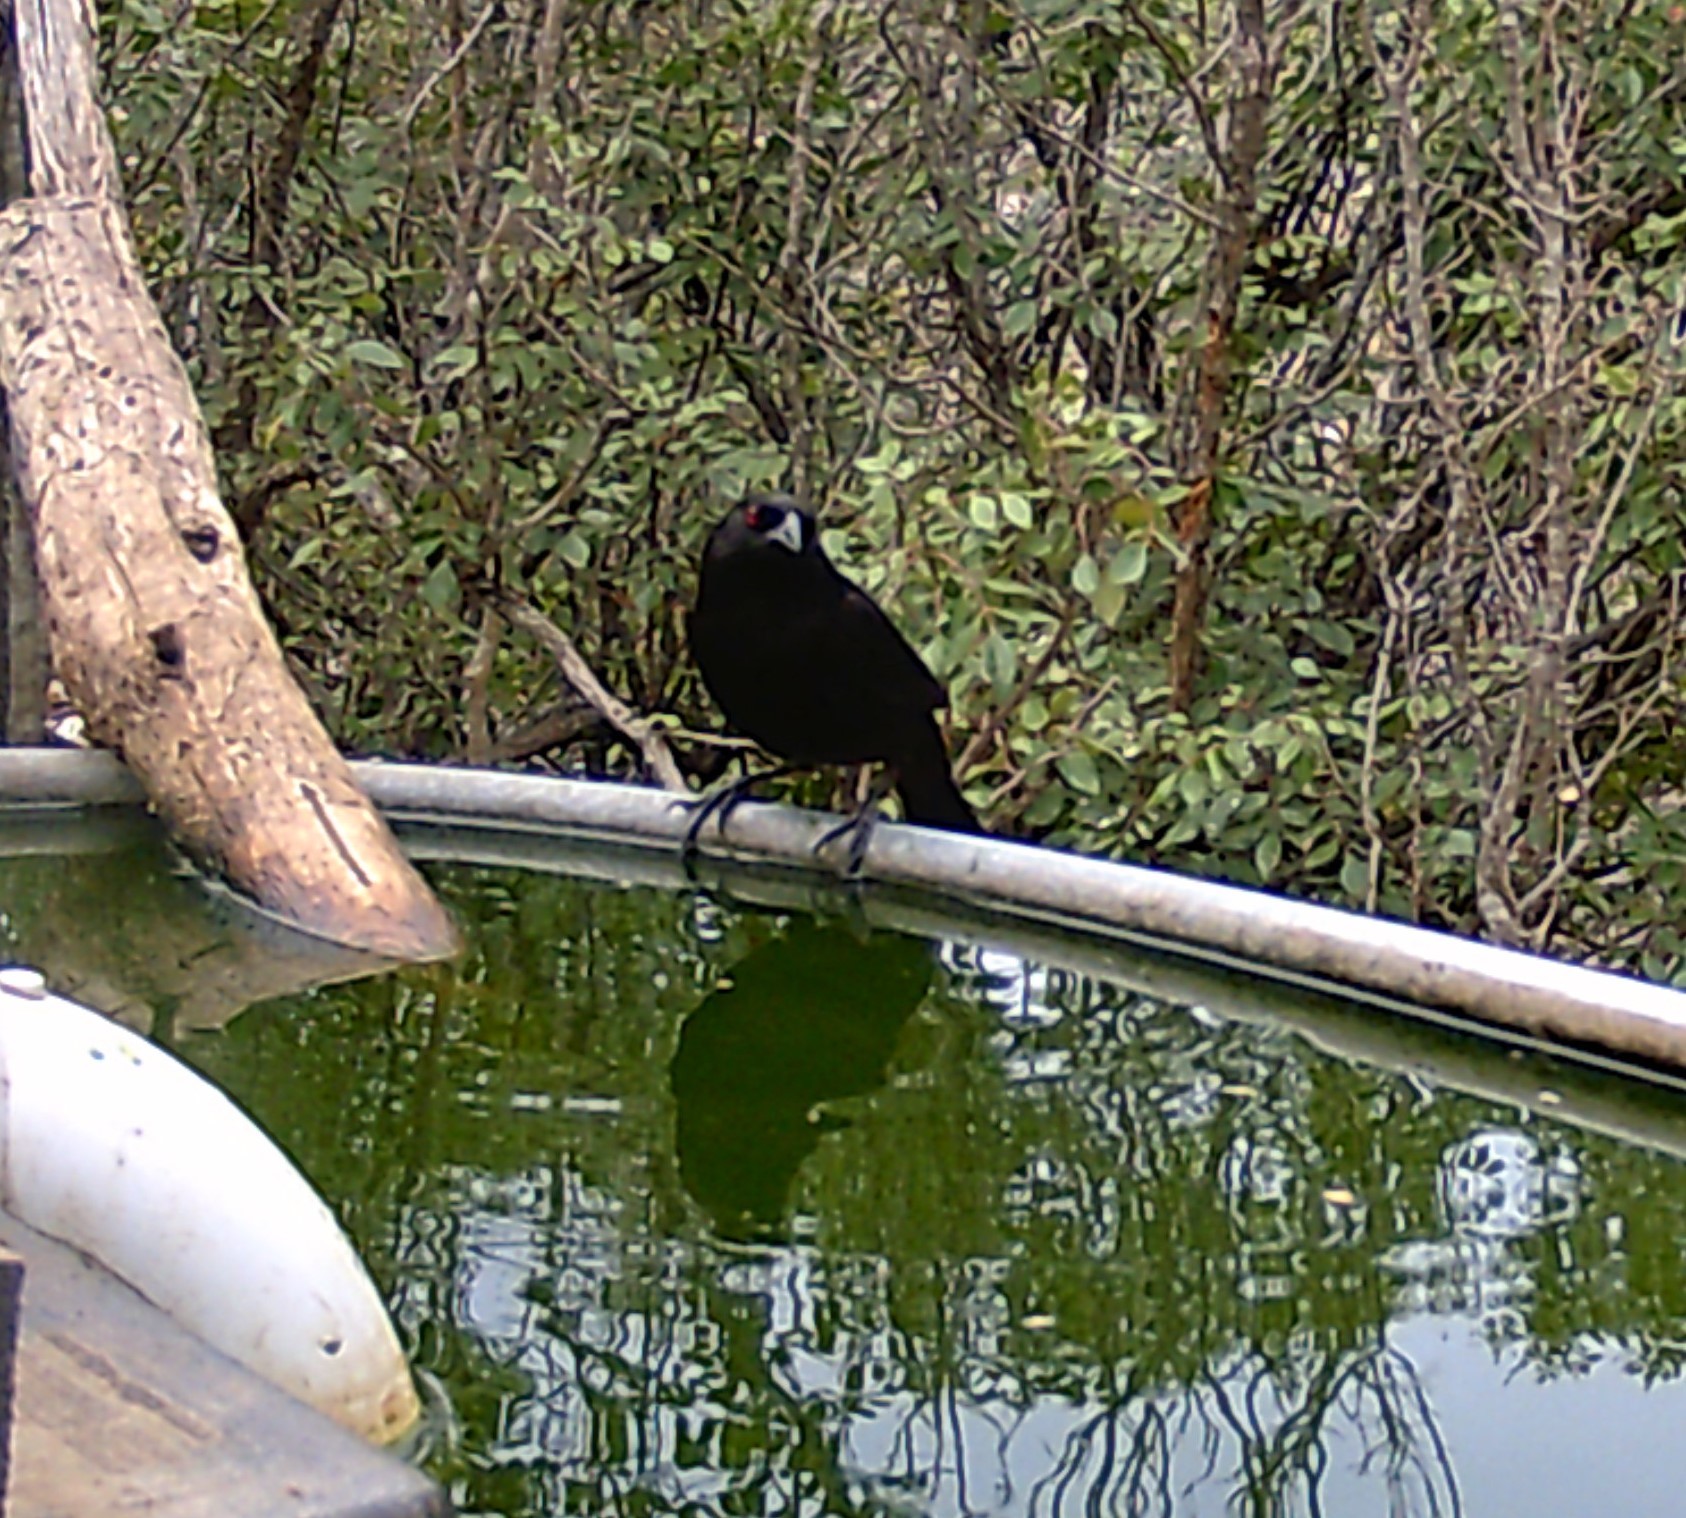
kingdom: Animalia
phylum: Chordata
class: Aves
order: Passeriformes
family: Icteridae
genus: Molothrus
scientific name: Molothrus aeneus
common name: Bronzed cowbird
